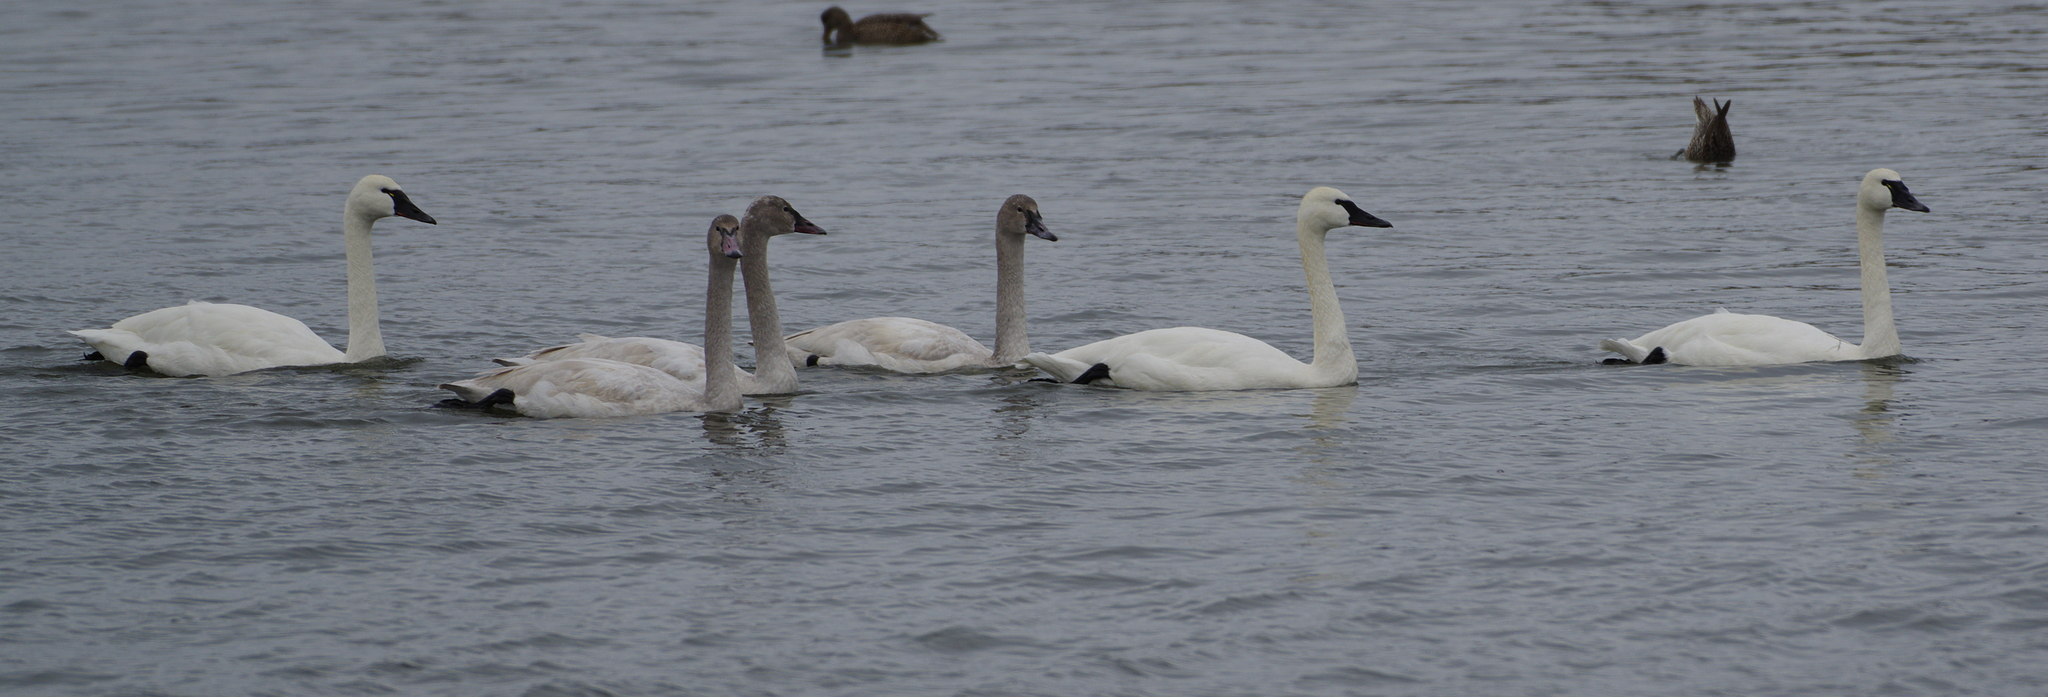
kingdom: Animalia
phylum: Chordata
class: Aves
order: Anseriformes
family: Anatidae
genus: Cygnus
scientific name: Cygnus columbianus
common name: Tundra swan
